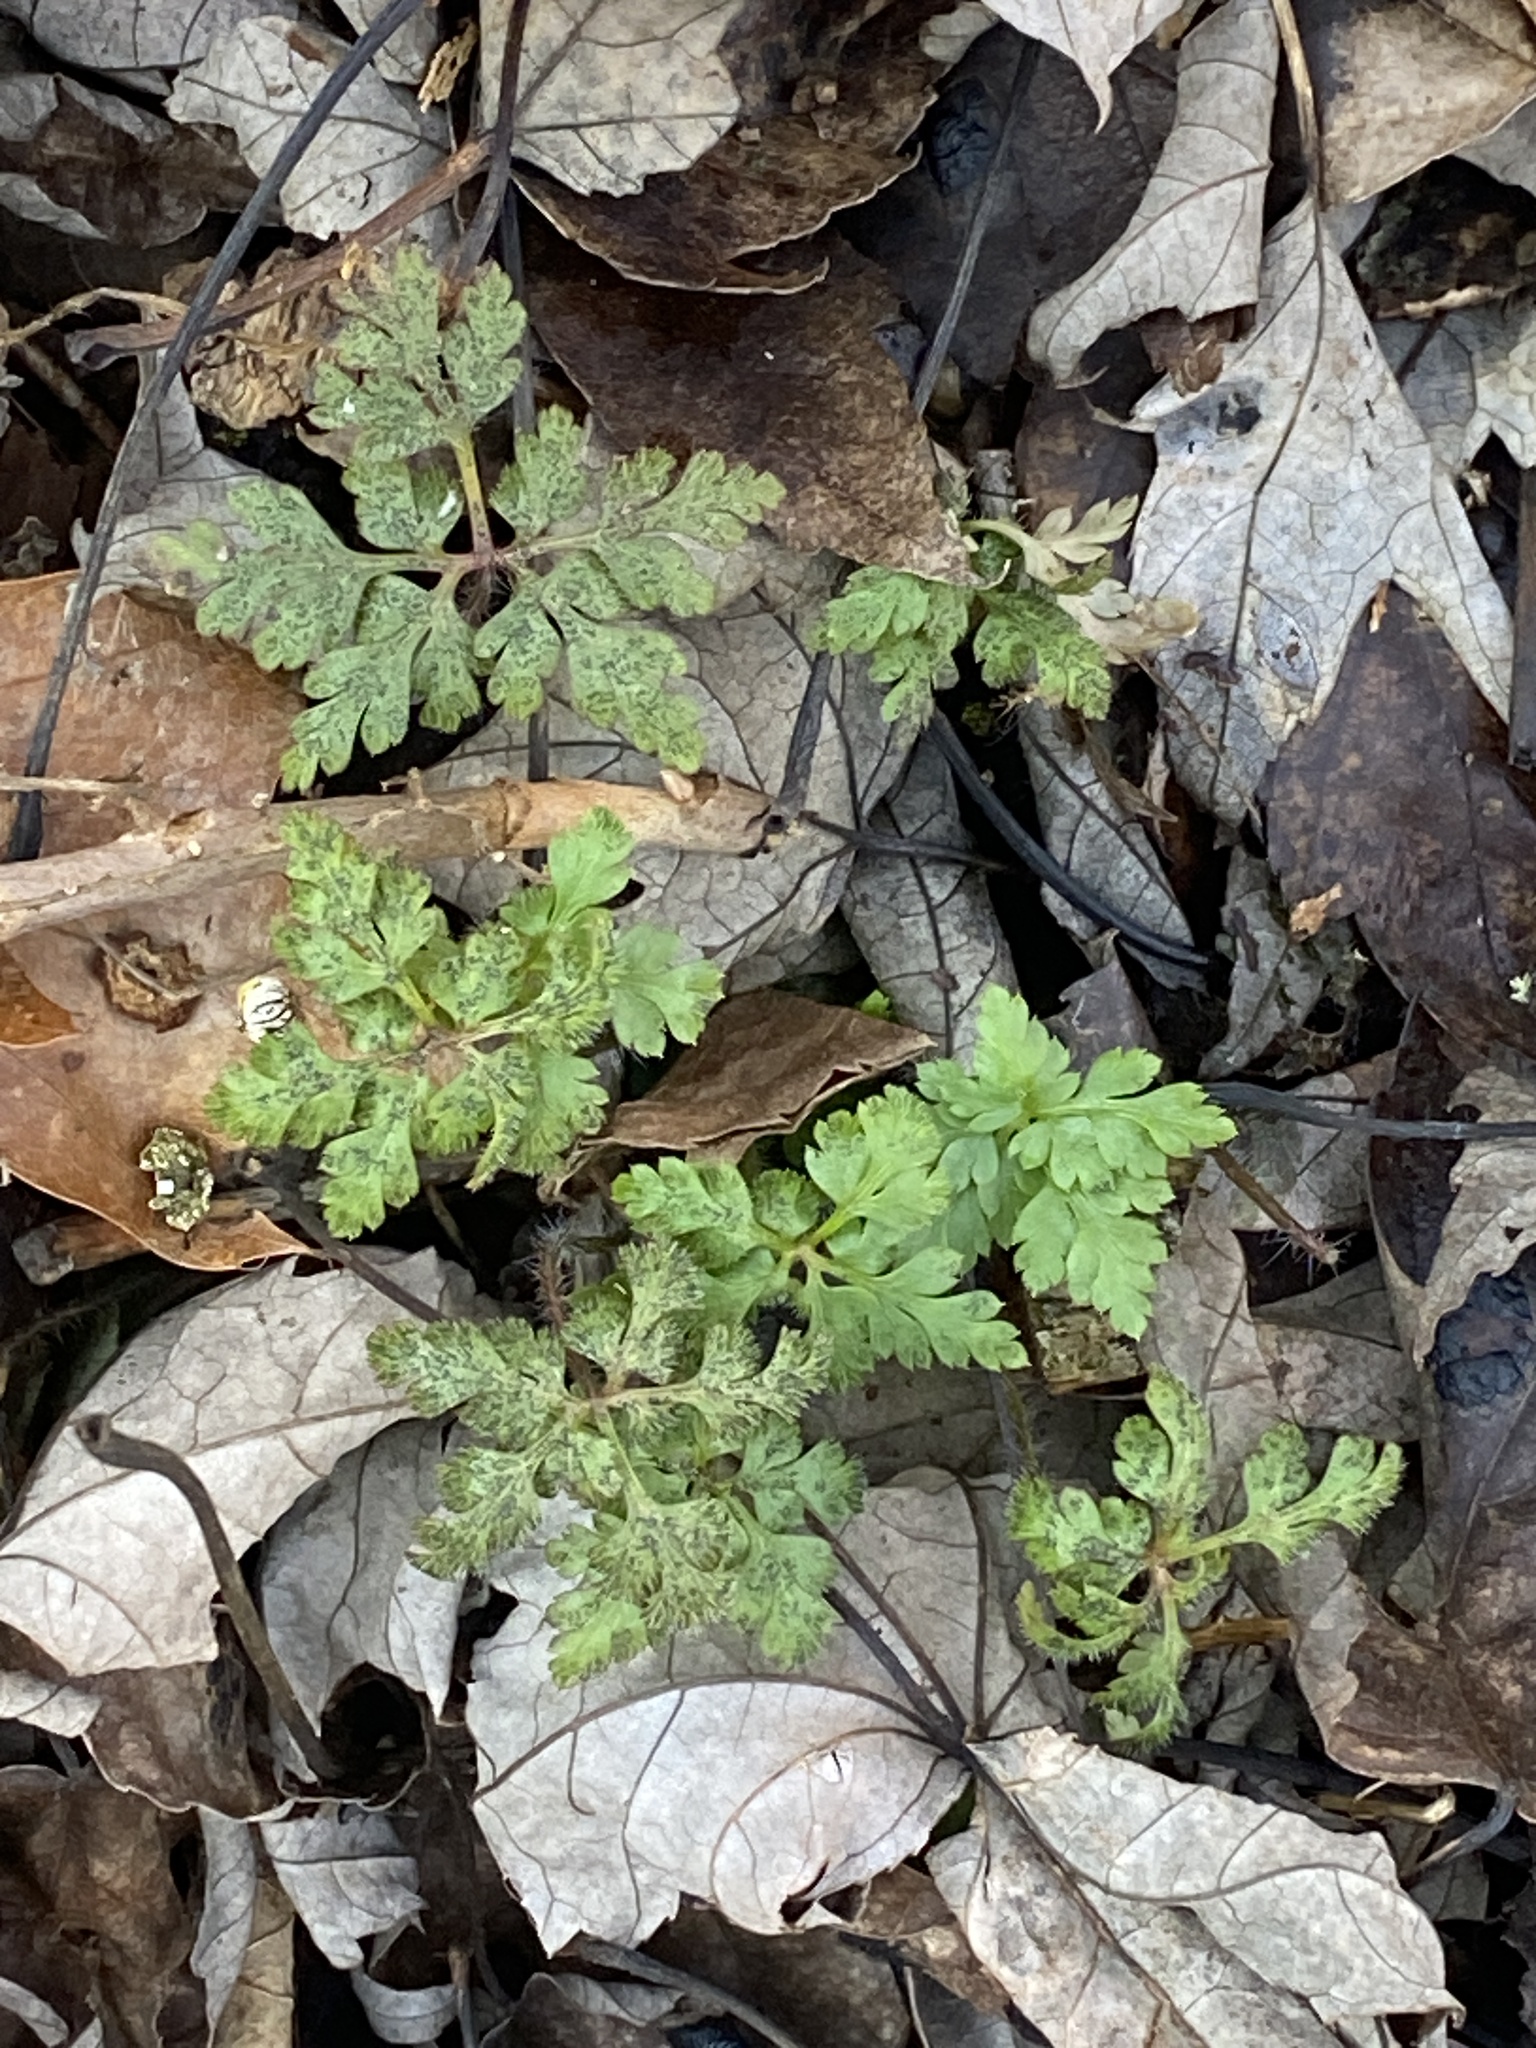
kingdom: Plantae
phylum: Tracheophyta
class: Magnoliopsida
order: Geraniales
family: Geraniaceae
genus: Geranium
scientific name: Geranium robertianum
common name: Herb-robert
